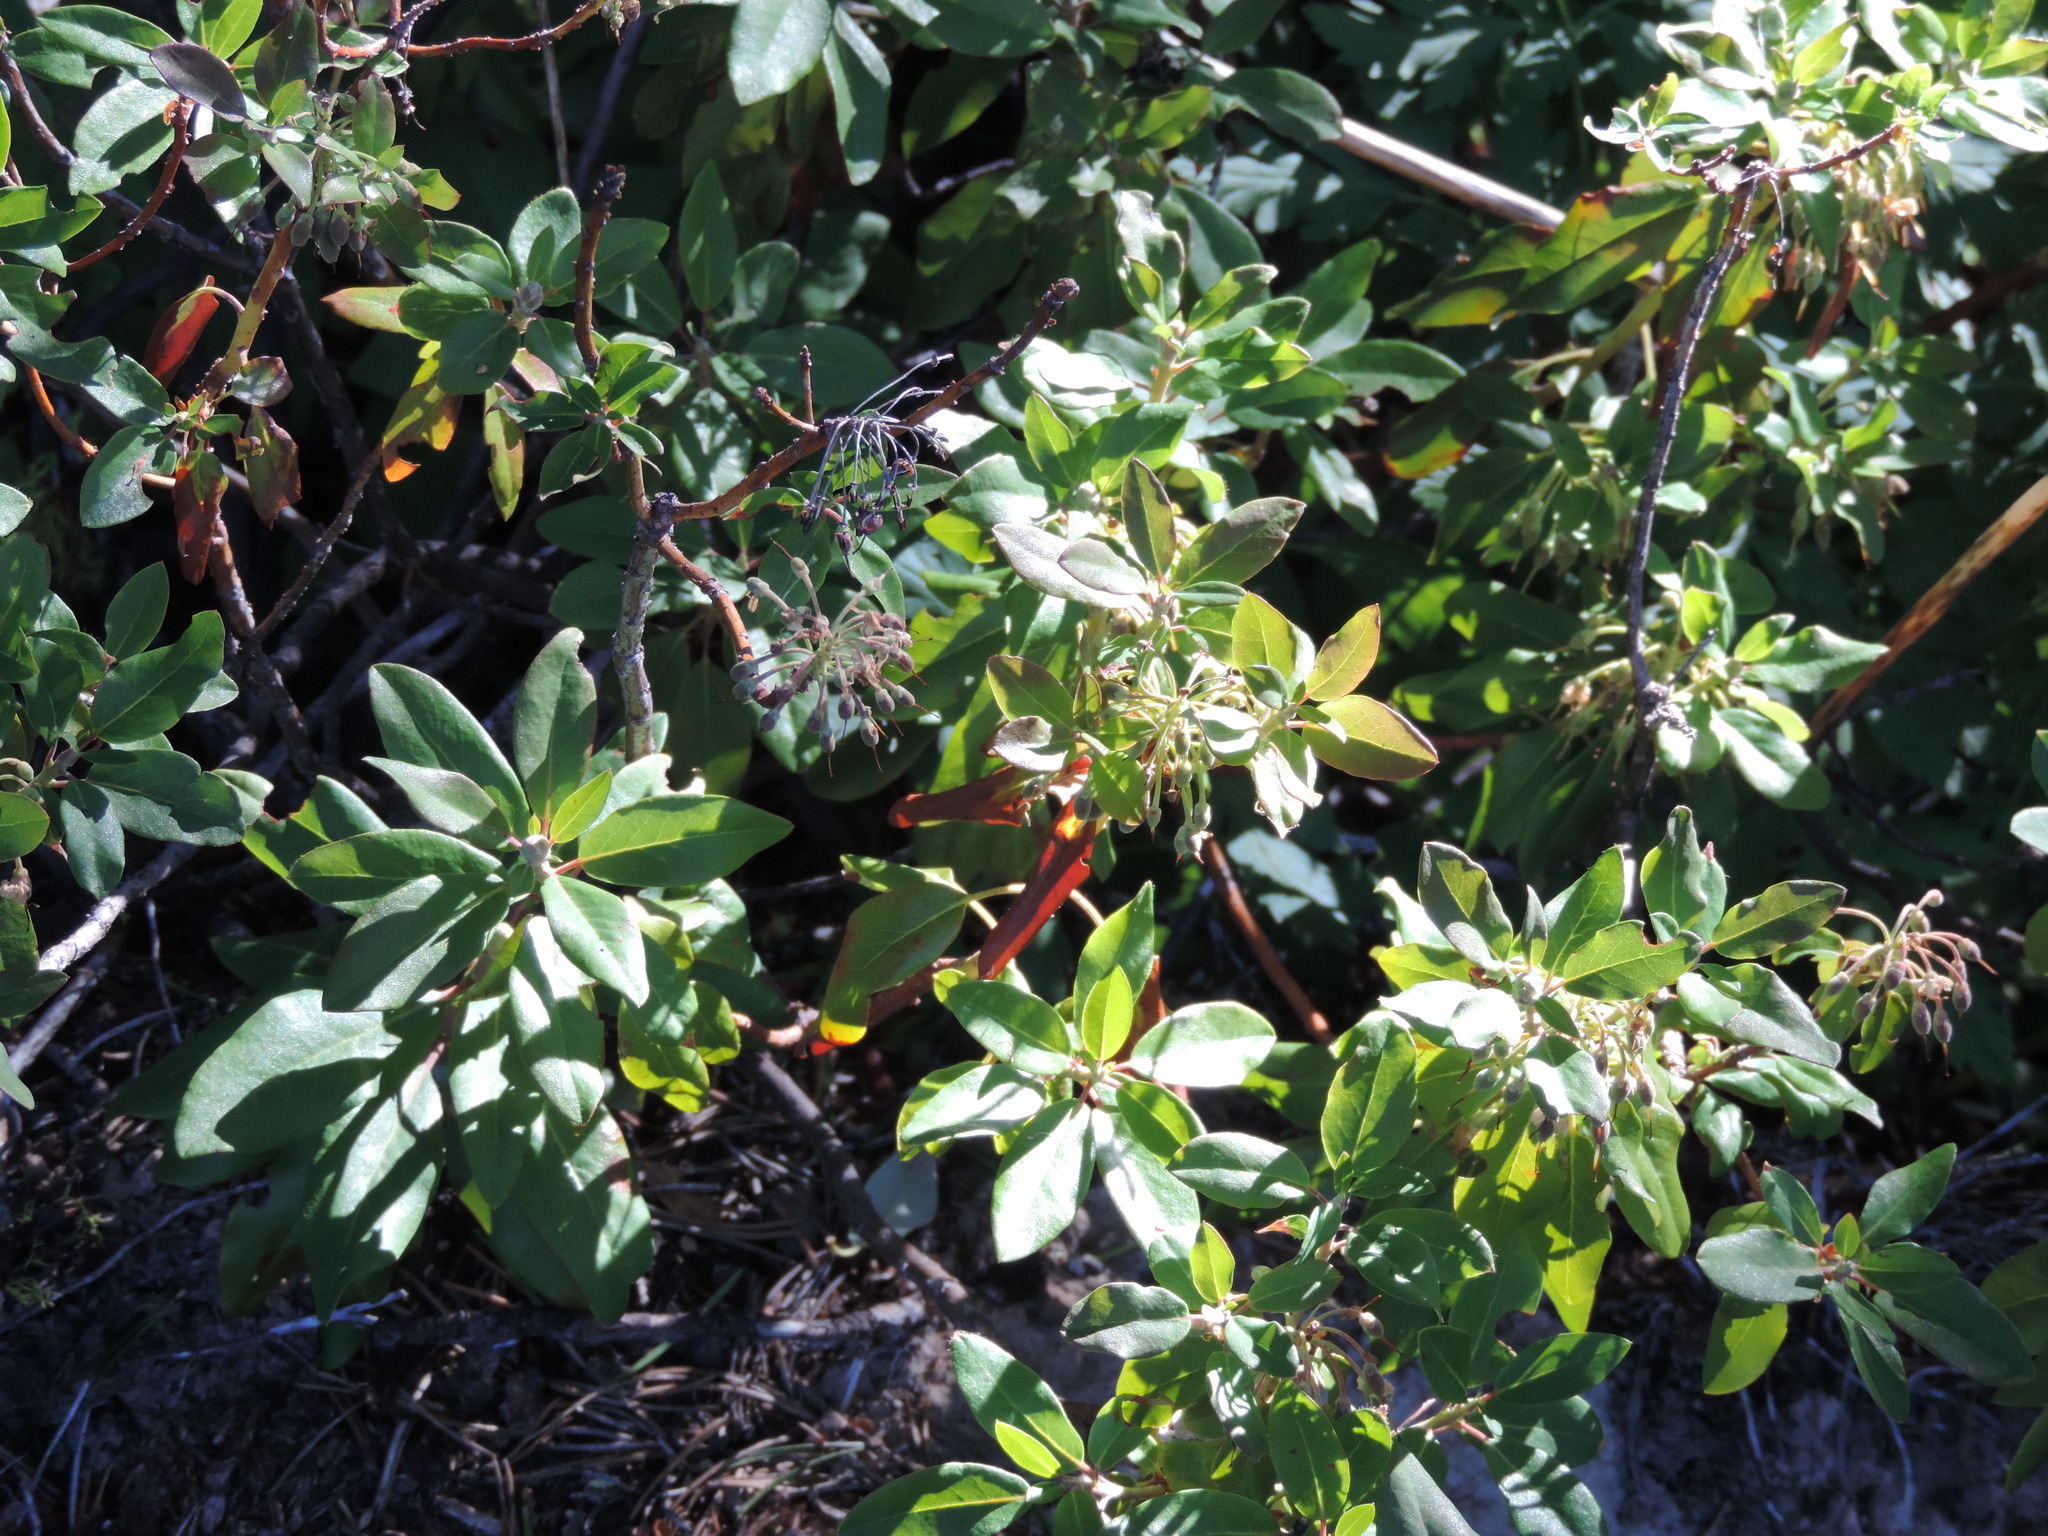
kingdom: Plantae
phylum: Tracheophyta
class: Magnoliopsida
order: Ericales
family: Ericaceae
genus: Rhododendron
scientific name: Rhododendron columbianum
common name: Western labrador tea
